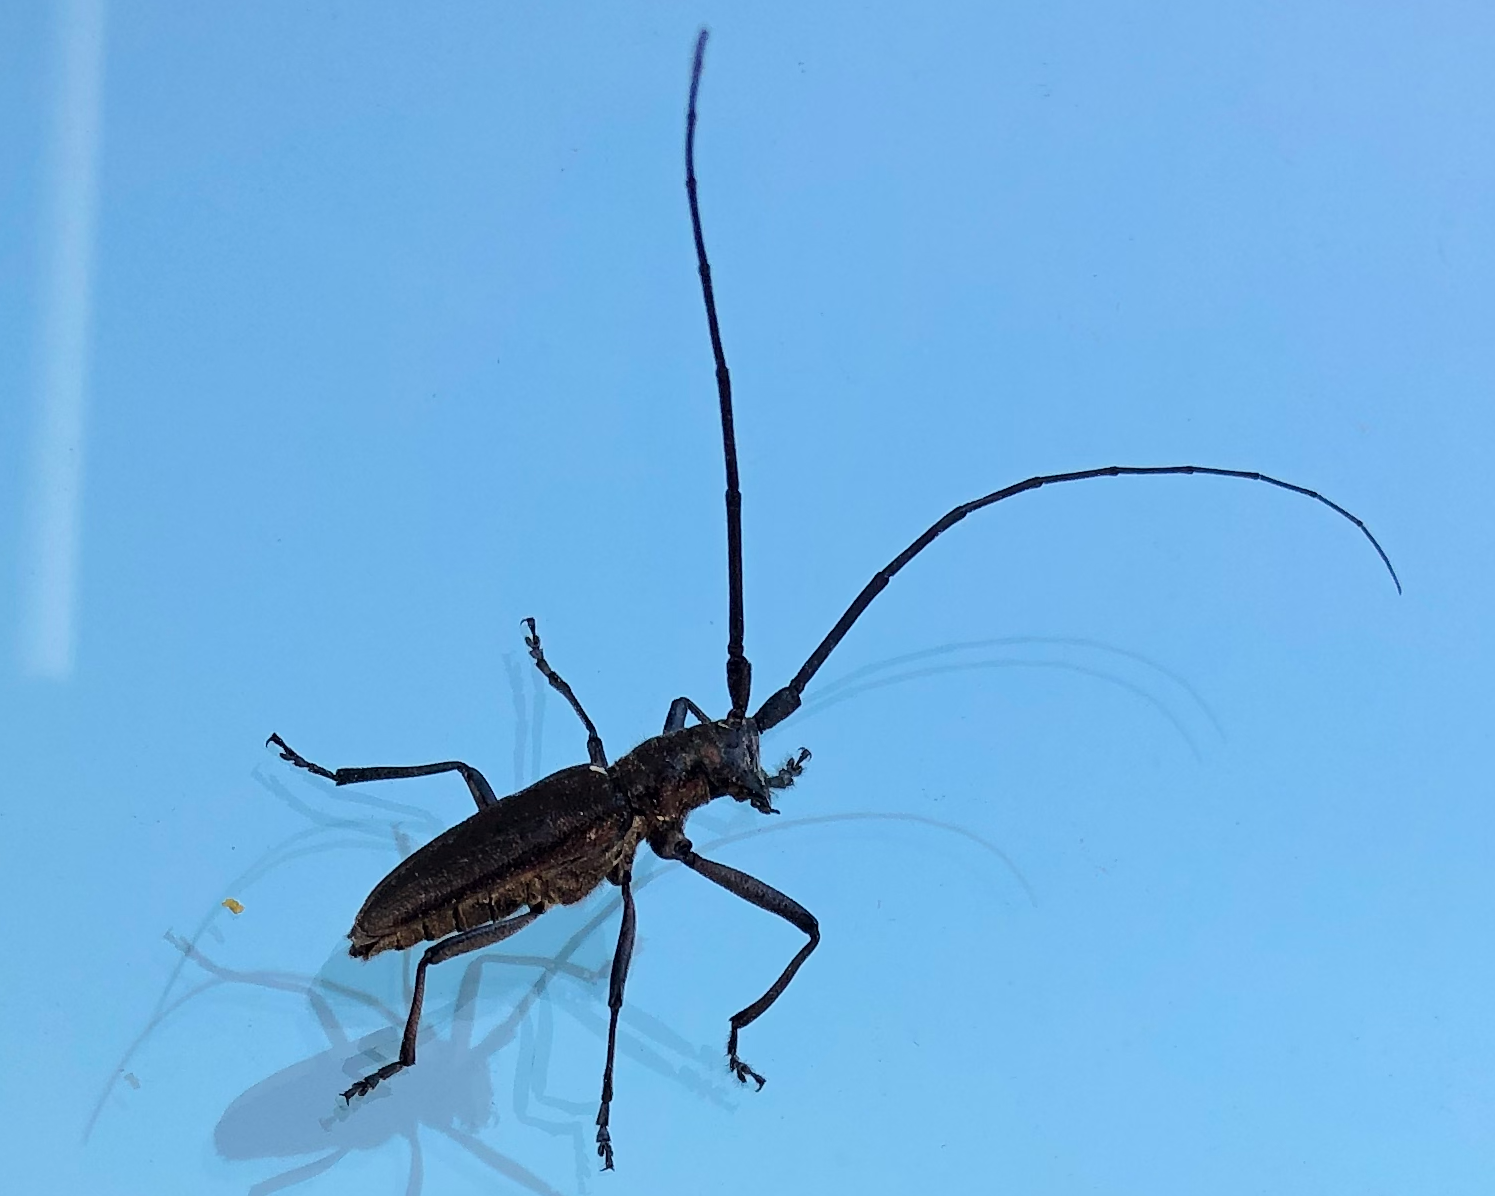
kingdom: Animalia
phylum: Arthropoda
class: Insecta
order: Coleoptera
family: Cerambycidae
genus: Monochamus
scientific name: Monochamus scutellatus
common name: White-spotted sawyer beetle
